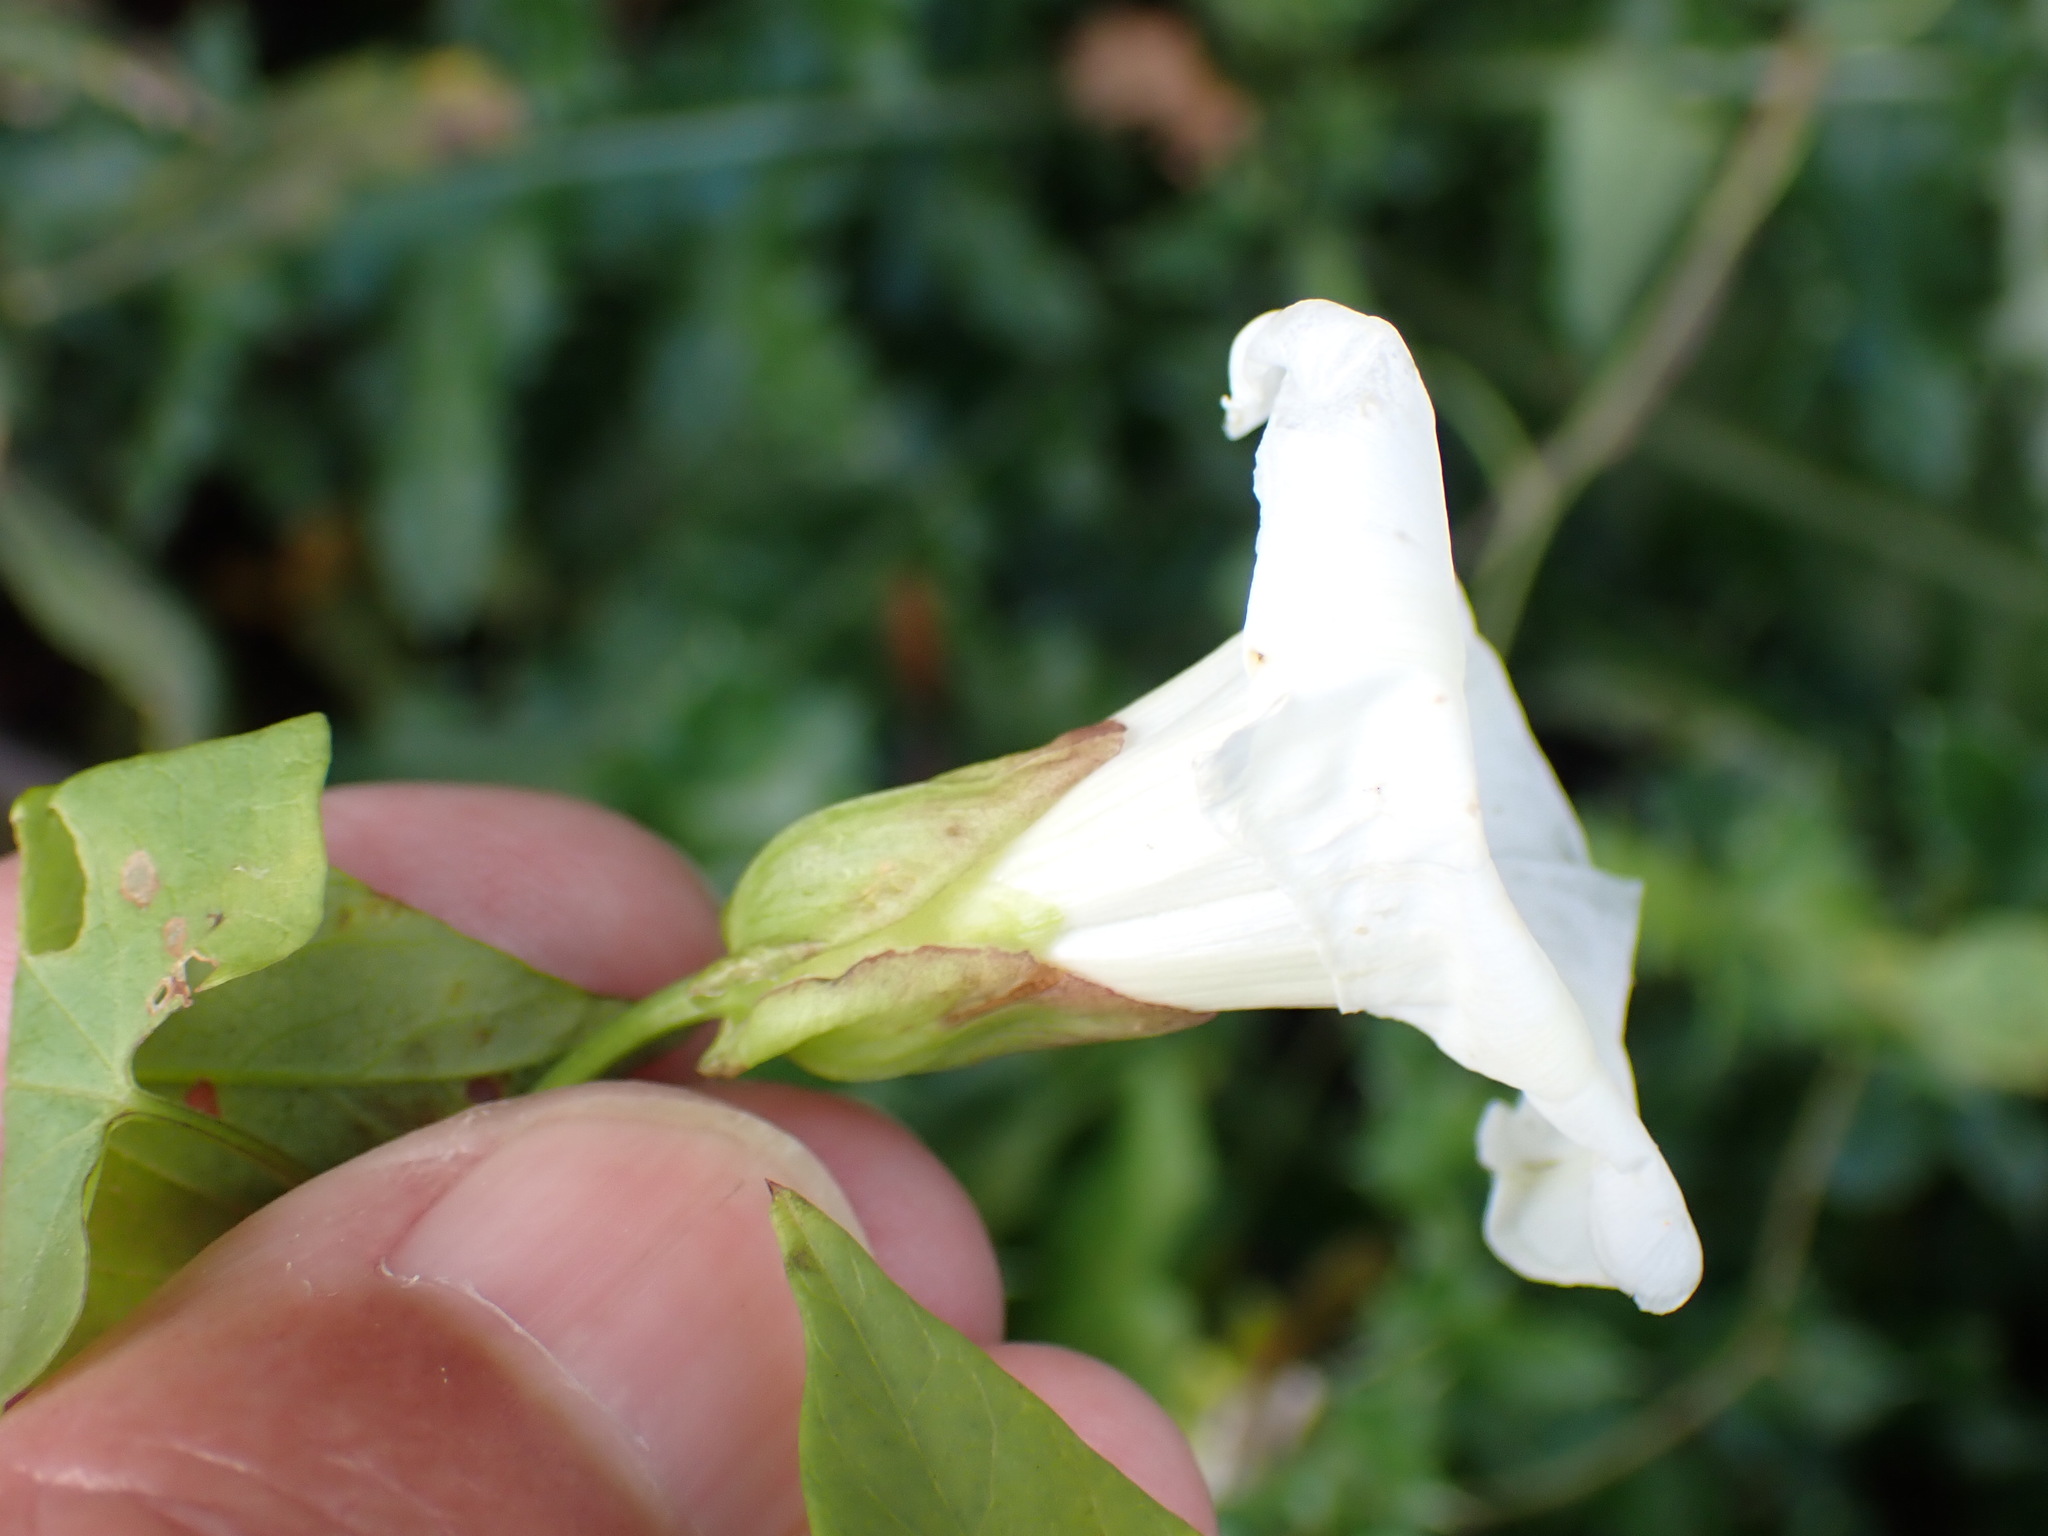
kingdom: Plantae
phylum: Tracheophyta
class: Magnoliopsida
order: Solanales
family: Convolvulaceae
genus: Calystegia
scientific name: Calystegia sepium
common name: Hedge bindweed
